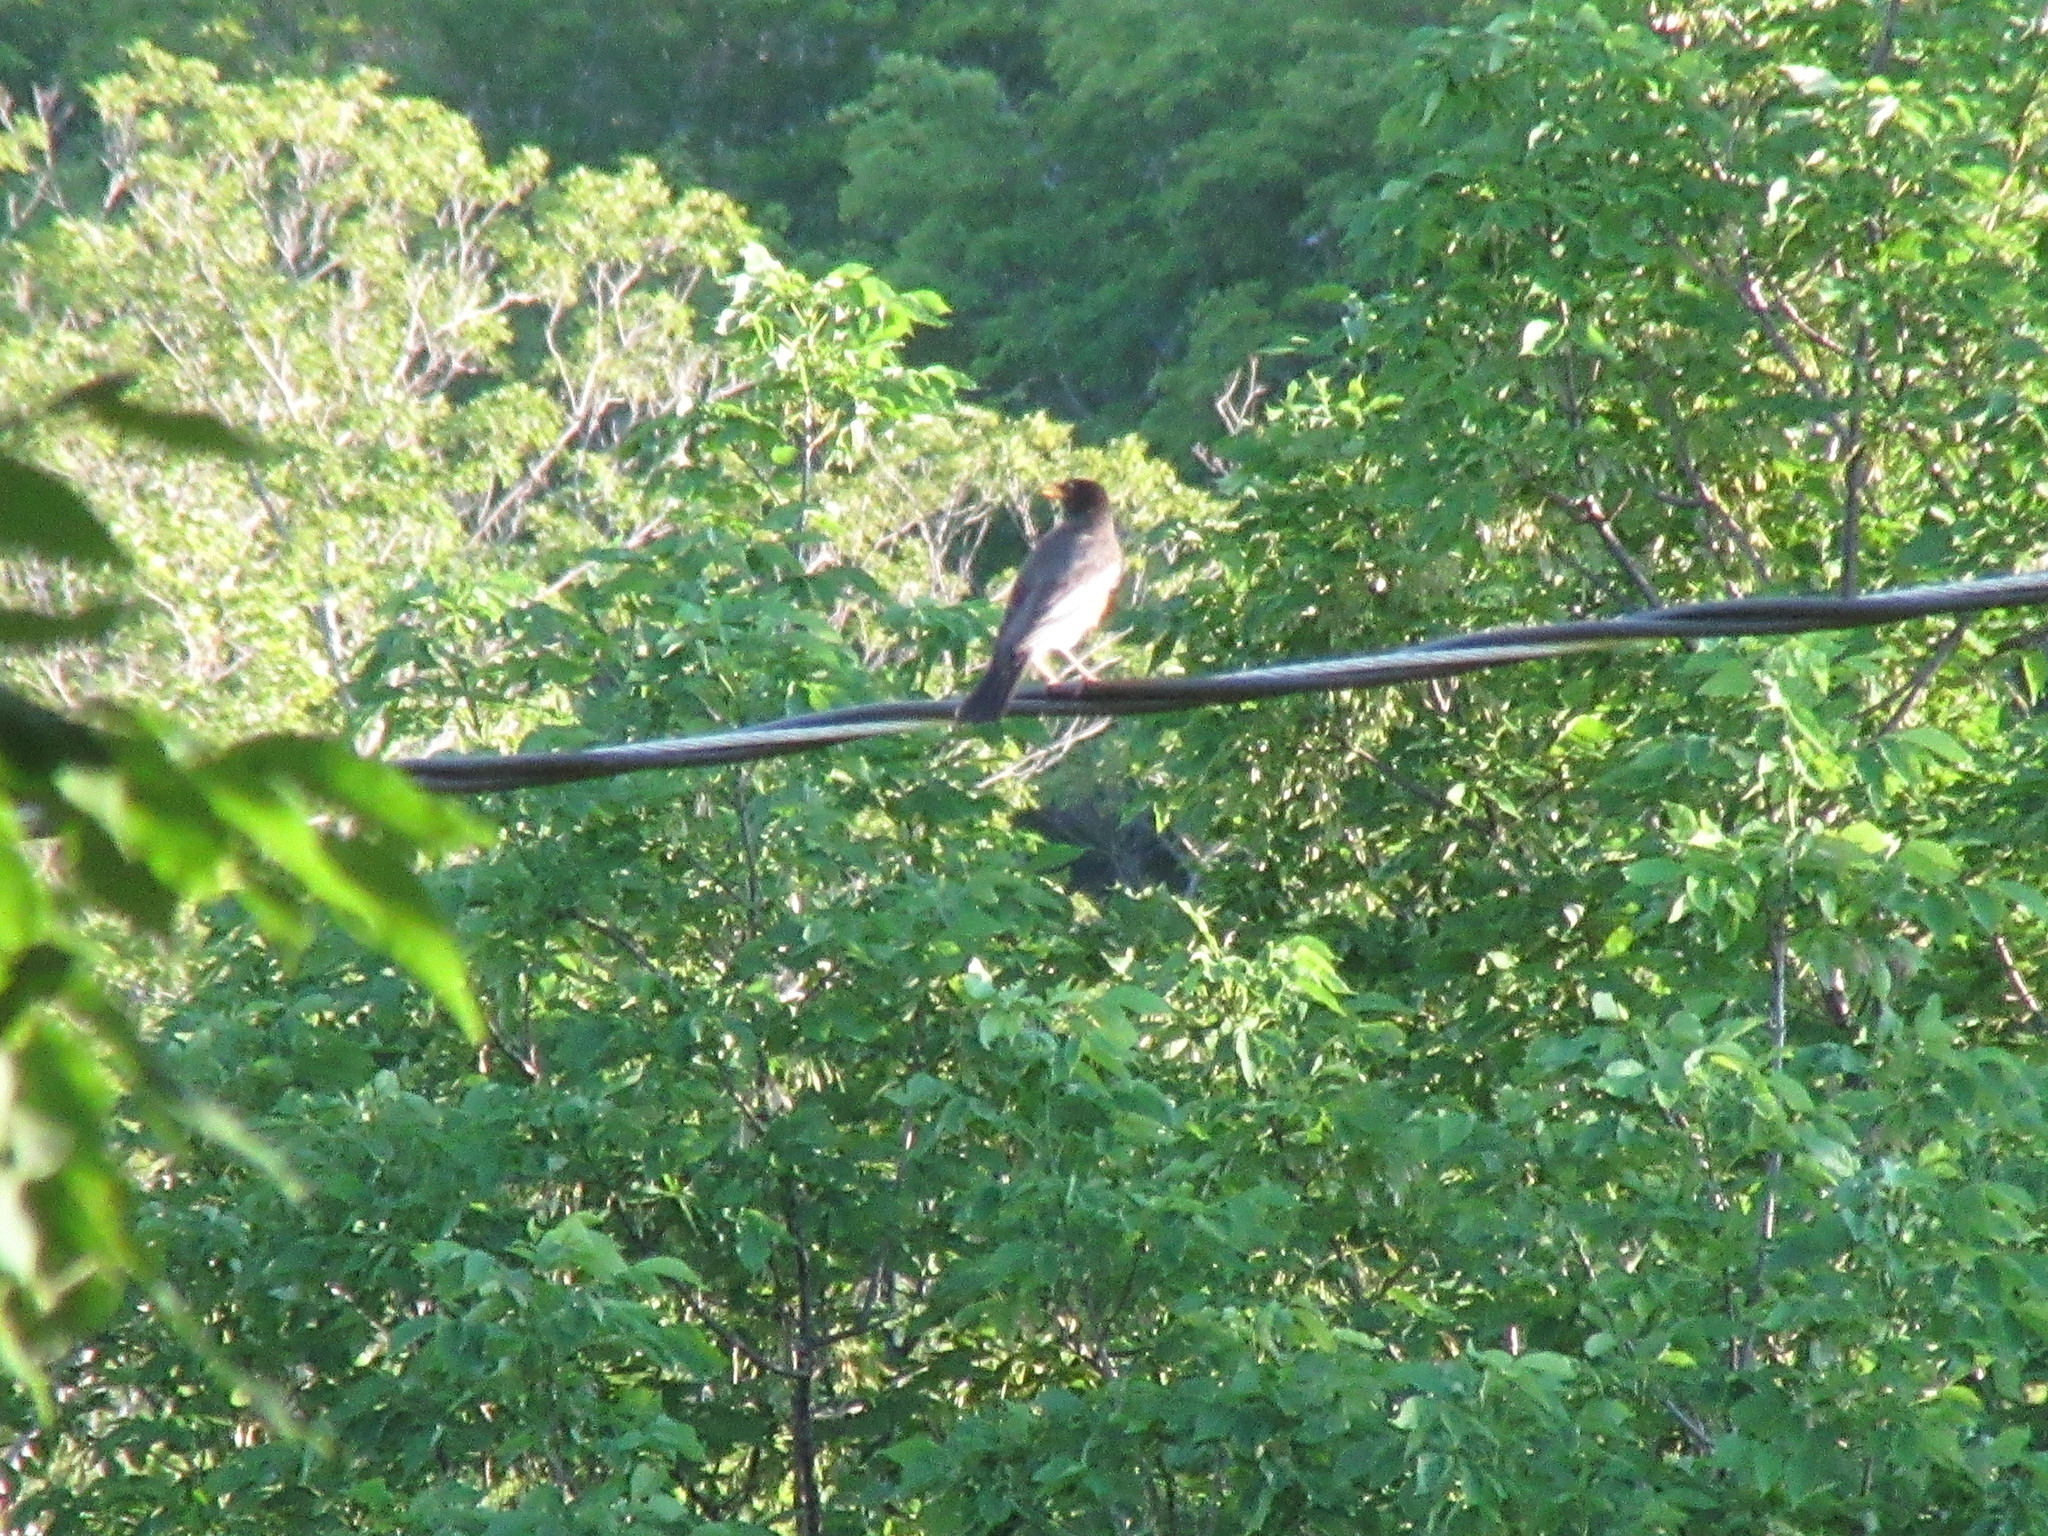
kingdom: Animalia
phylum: Chordata
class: Aves
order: Passeriformes
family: Turdidae
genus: Turdus
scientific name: Turdus migratorius
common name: American robin
